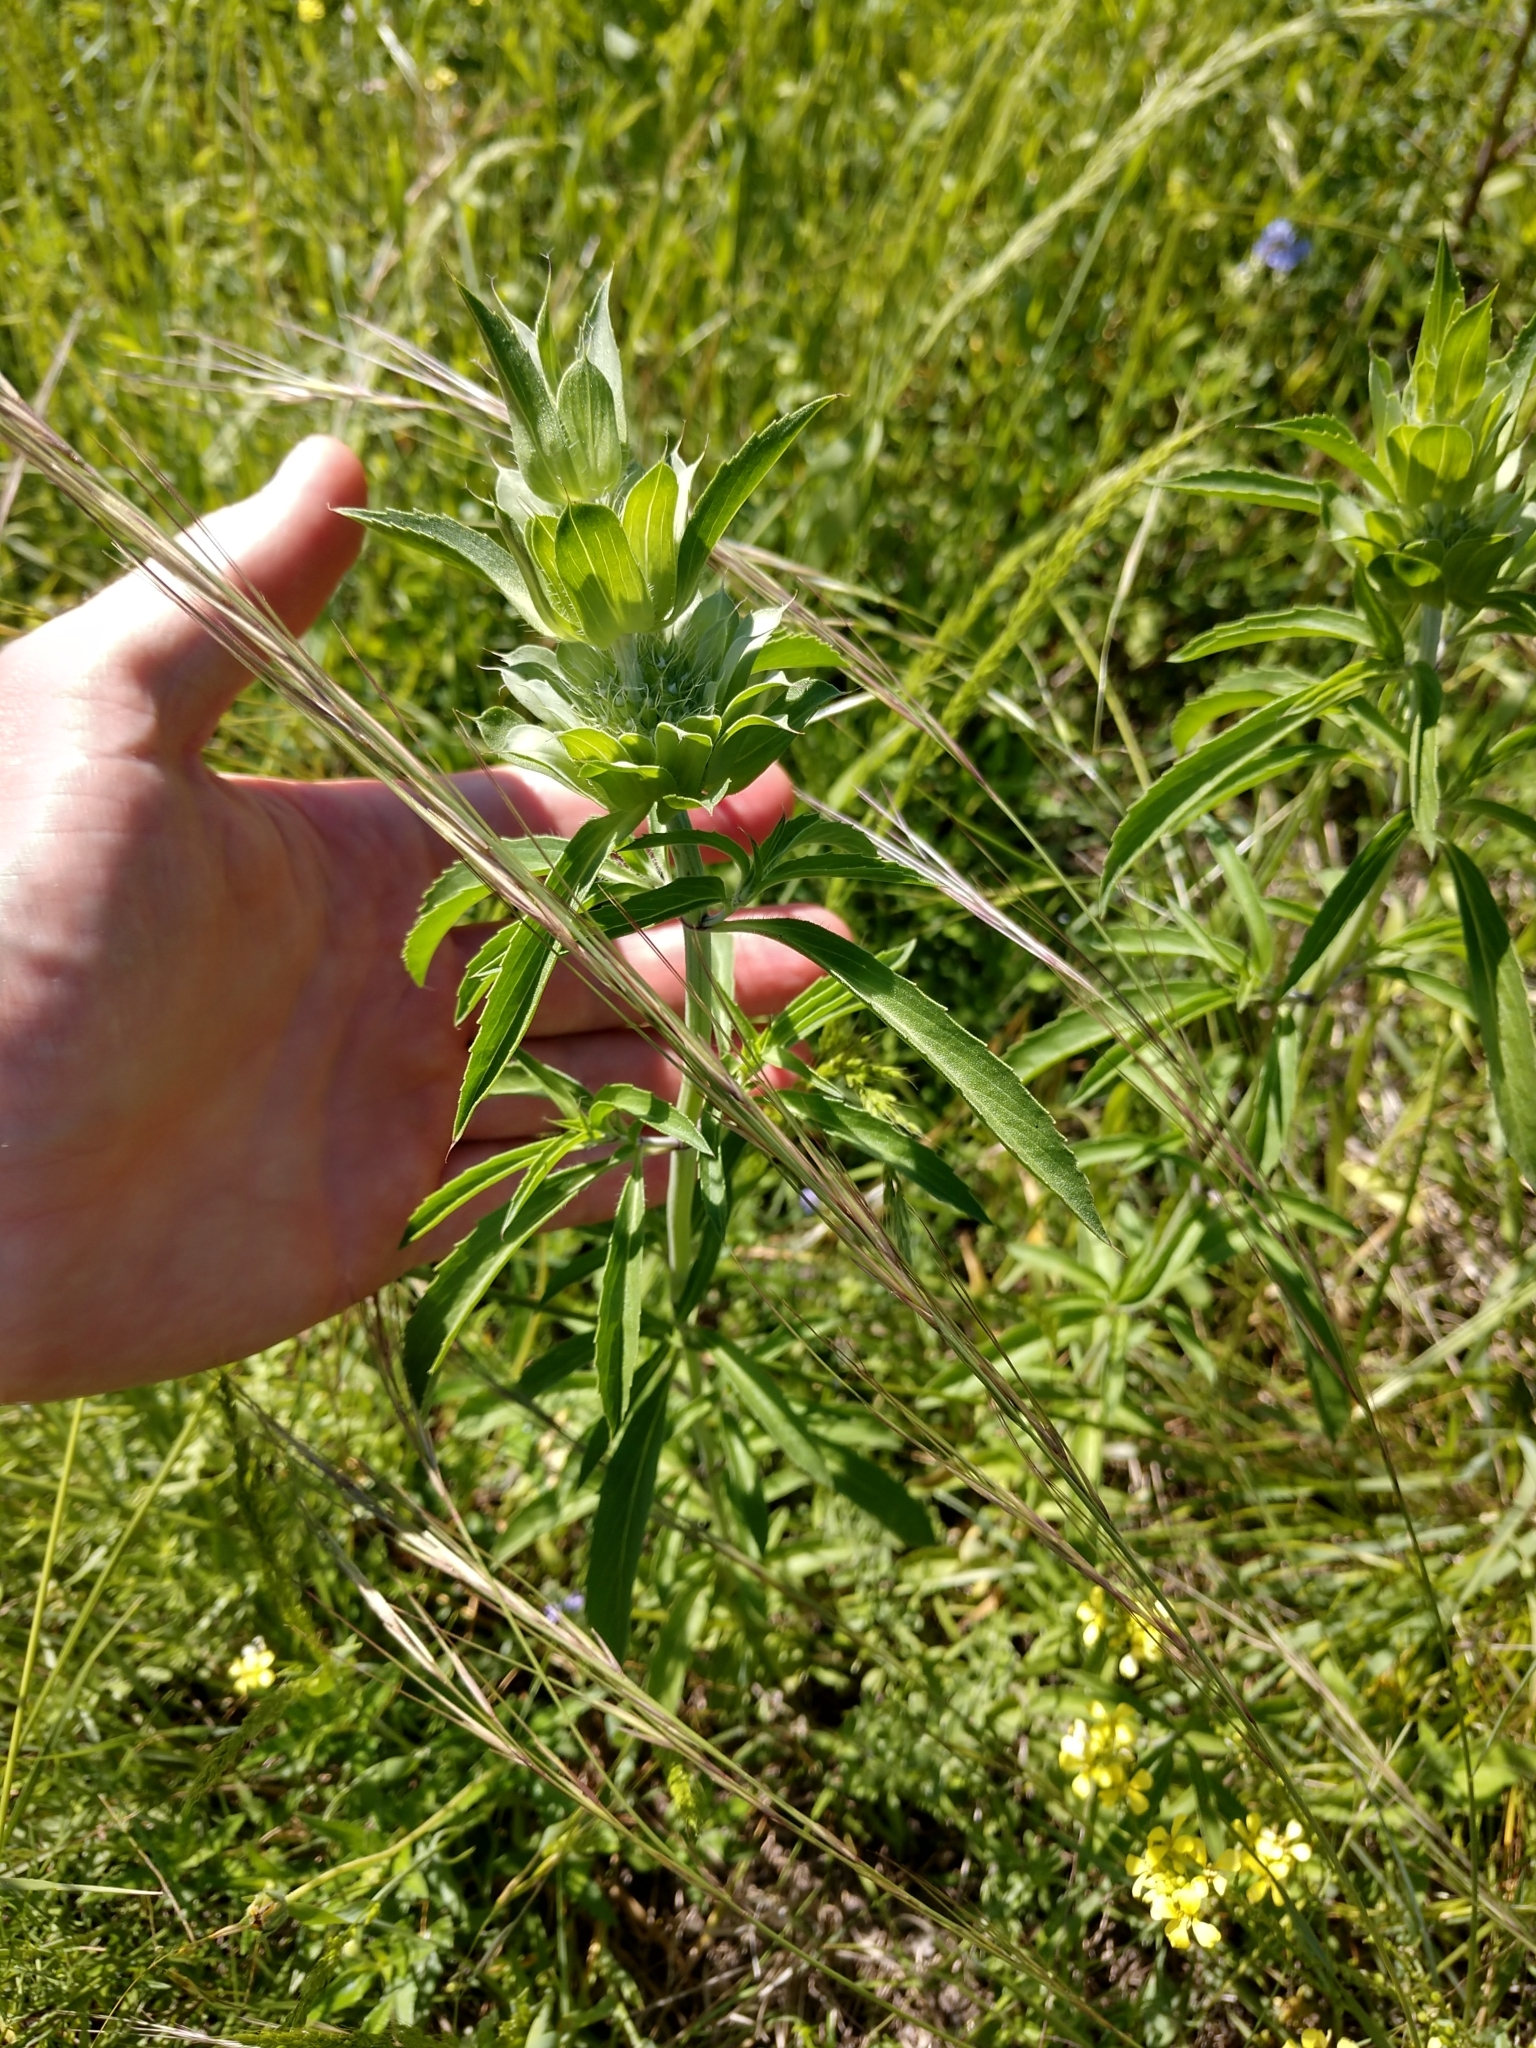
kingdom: Plantae
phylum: Tracheophyta
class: Magnoliopsida
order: Lamiales
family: Lamiaceae
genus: Monarda
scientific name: Monarda citriodora
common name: Lemon beebalm
